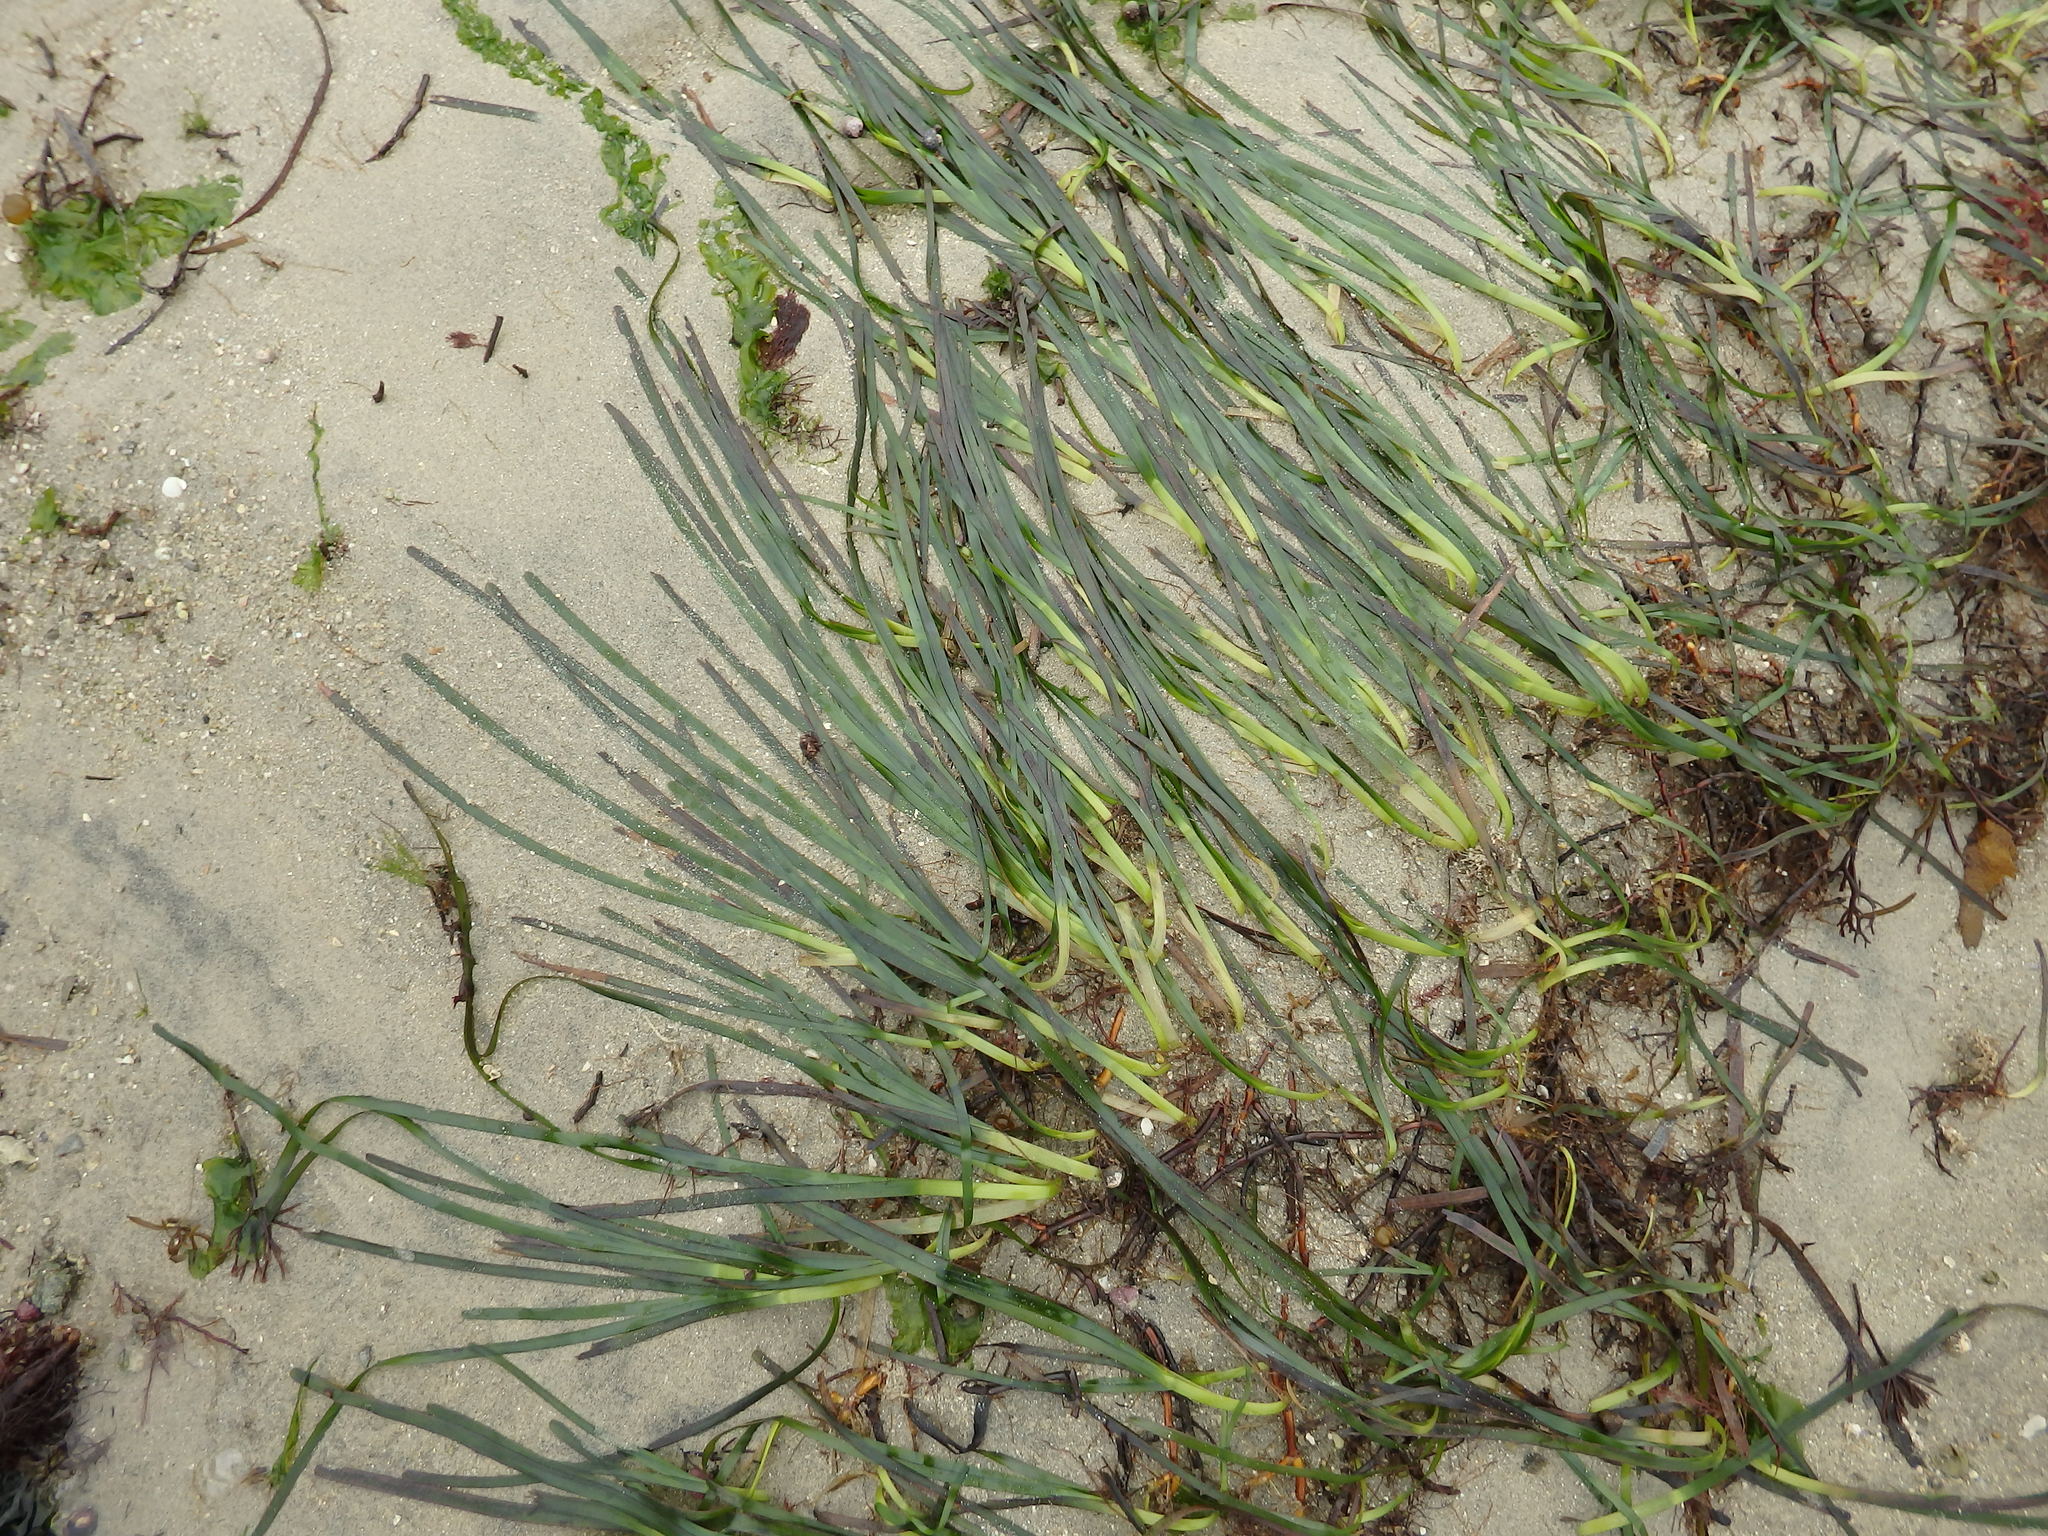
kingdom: Plantae
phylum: Tracheophyta
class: Liliopsida
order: Alismatales
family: Zosteraceae
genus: Zostera
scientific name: Zostera marina
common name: Eelgrass
